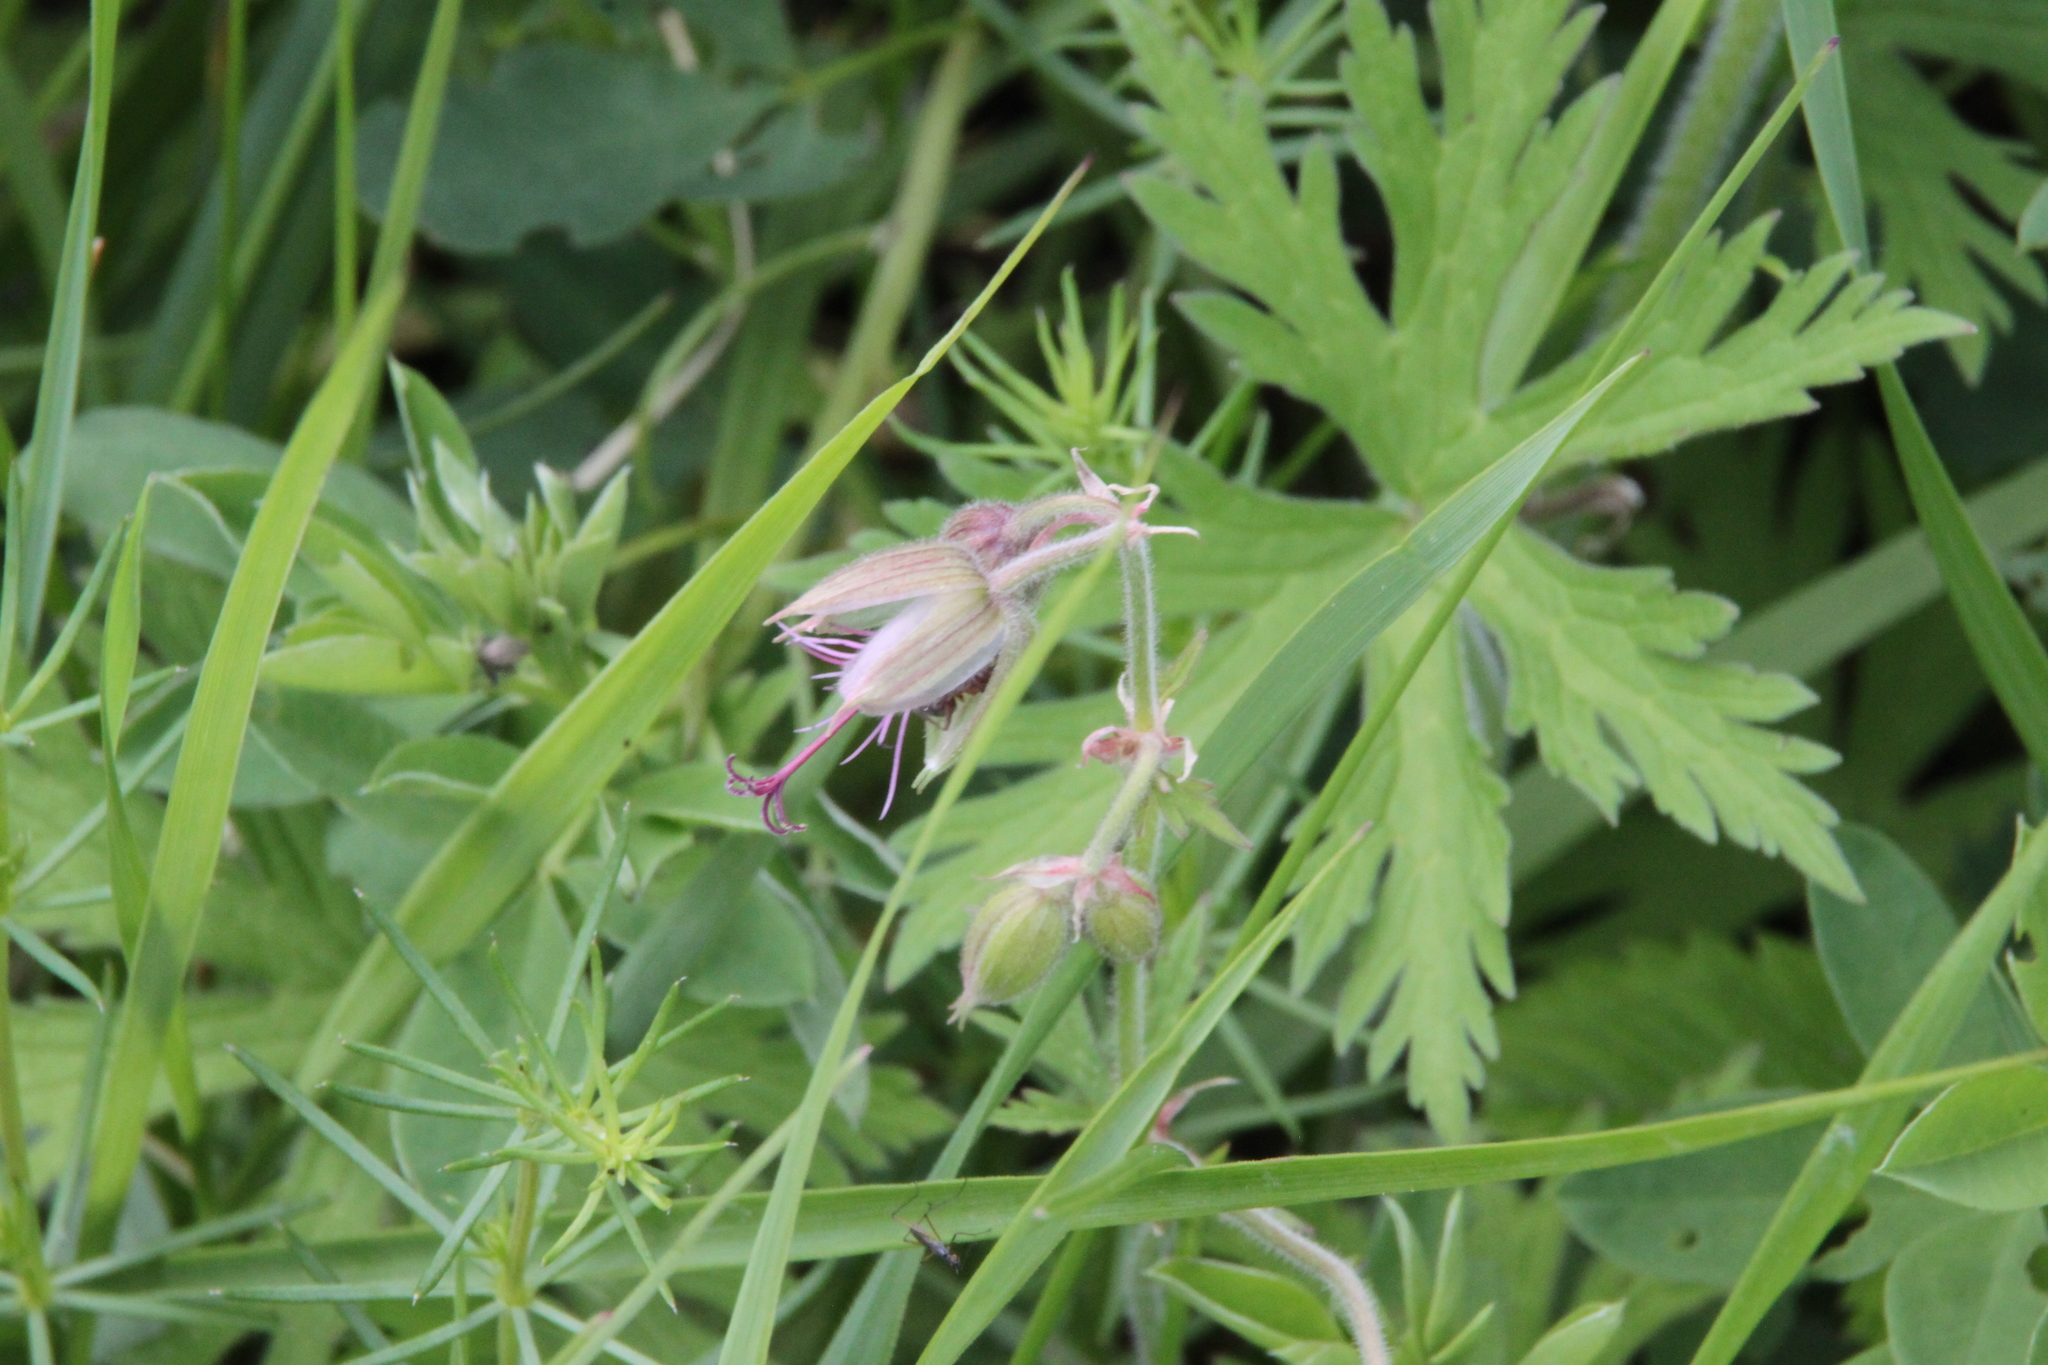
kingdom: Plantae
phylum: Tracheophyta
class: Magnoliopsida
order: Geraniales
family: Geraniaceae
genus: Geranium
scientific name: Geranium pratense
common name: Meadow crane's-bill
